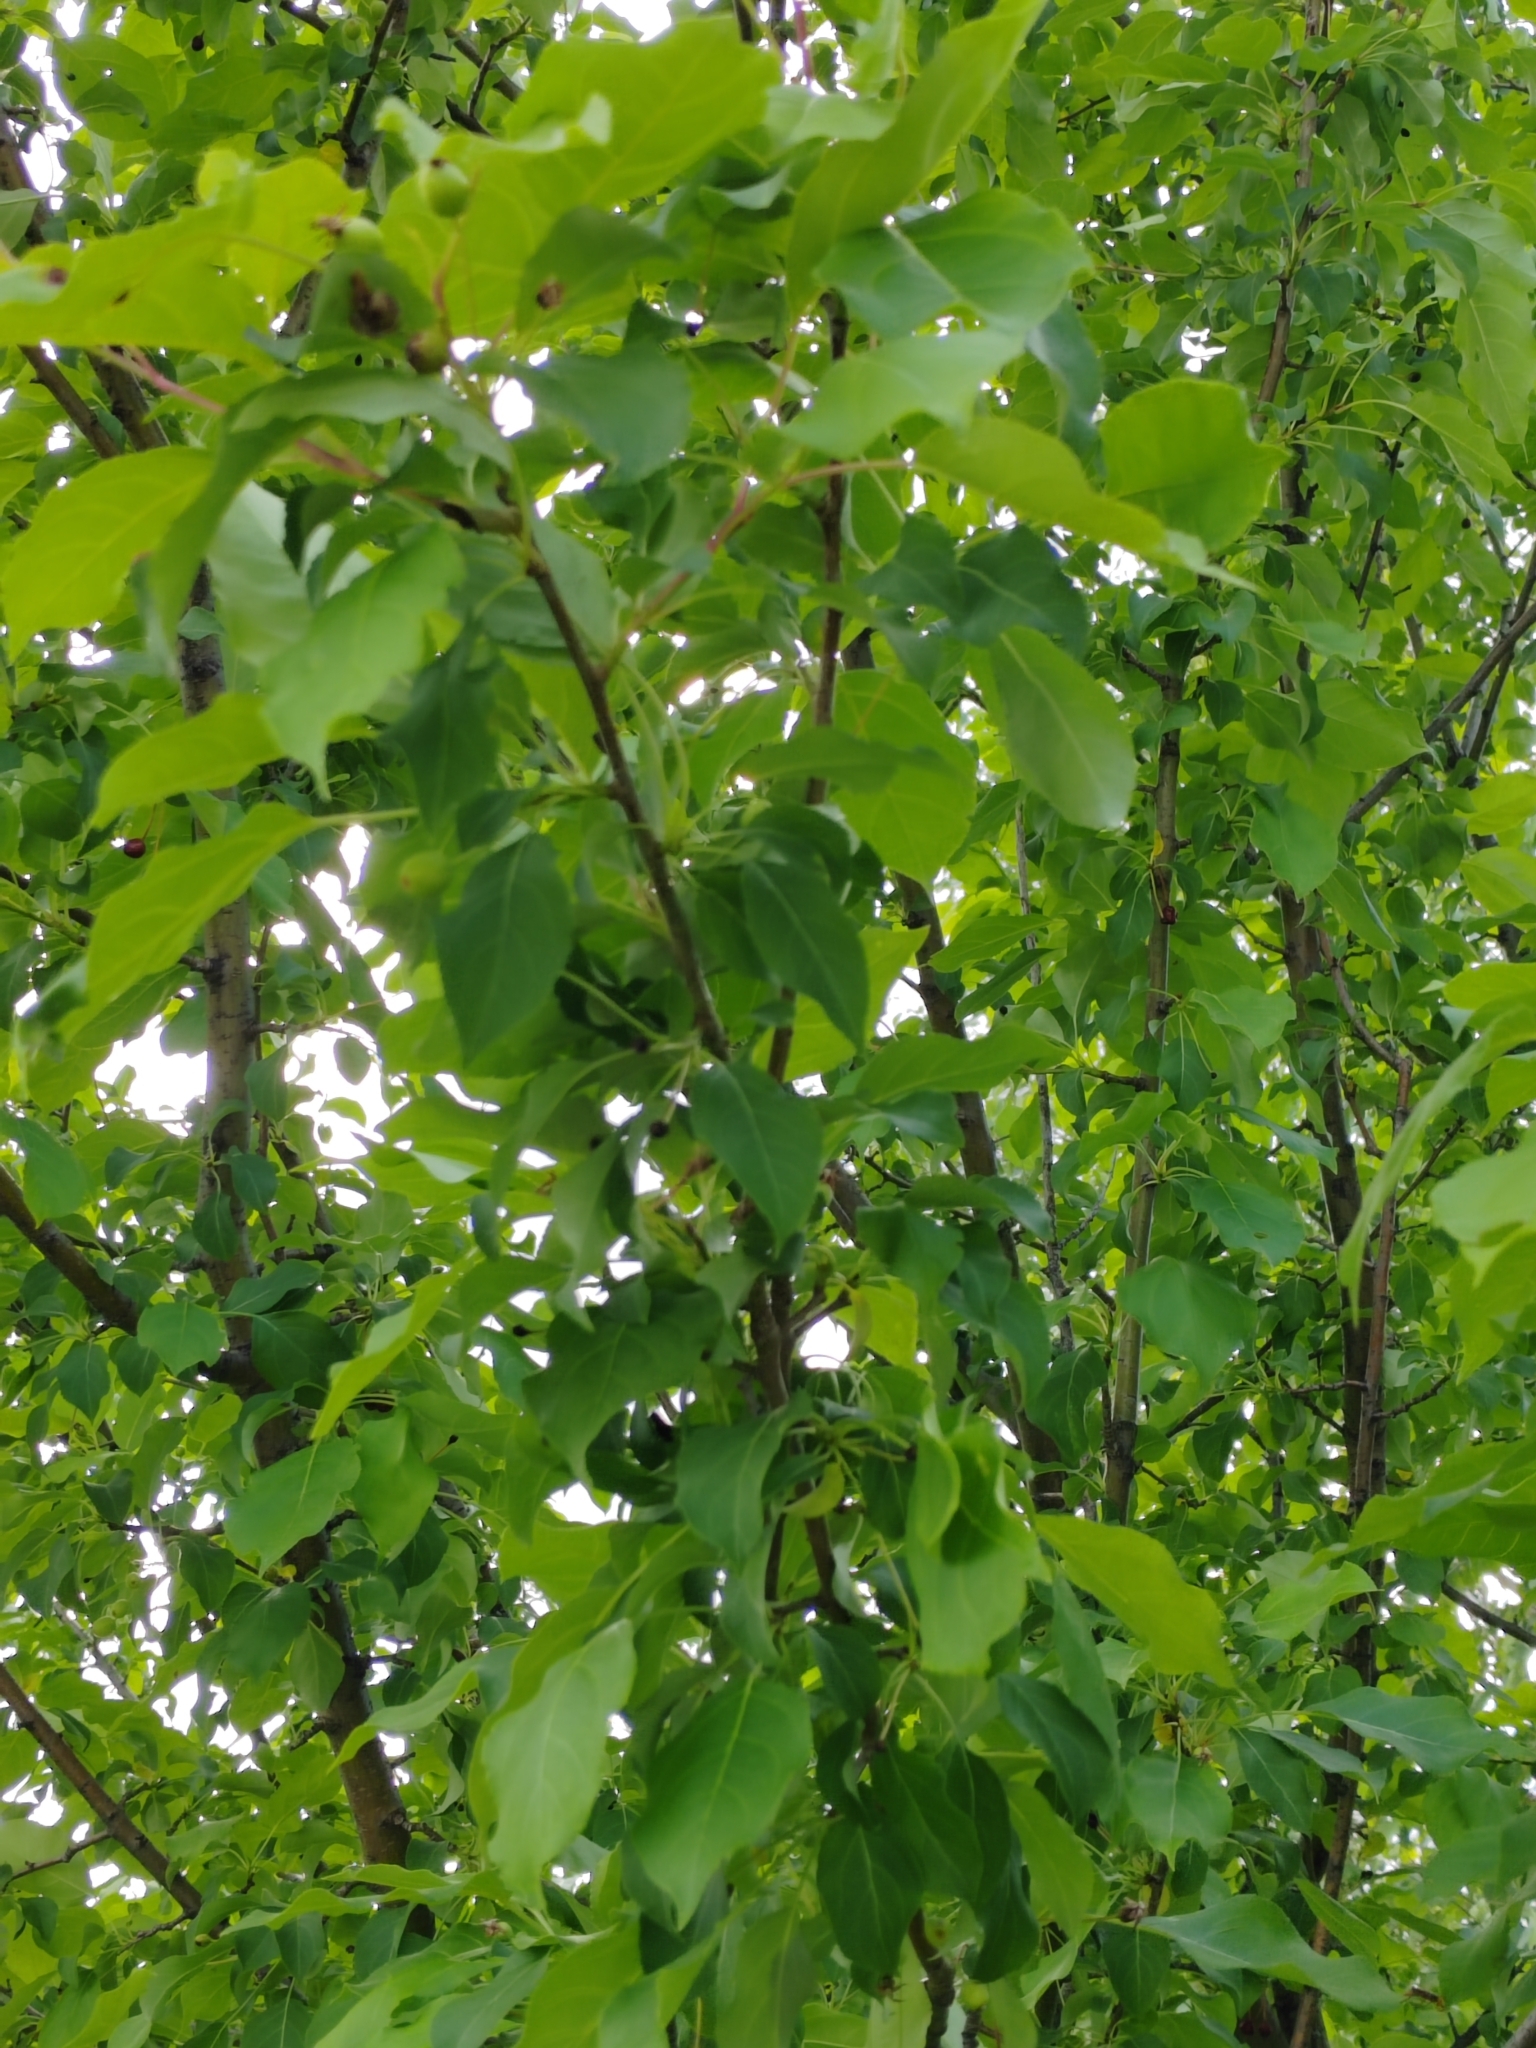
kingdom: Plantae
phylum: Tracheophyta
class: Magnoliopsida
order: Rosales
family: Rosaceae
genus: Malus
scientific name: Malus baccata
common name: Siberian crab
